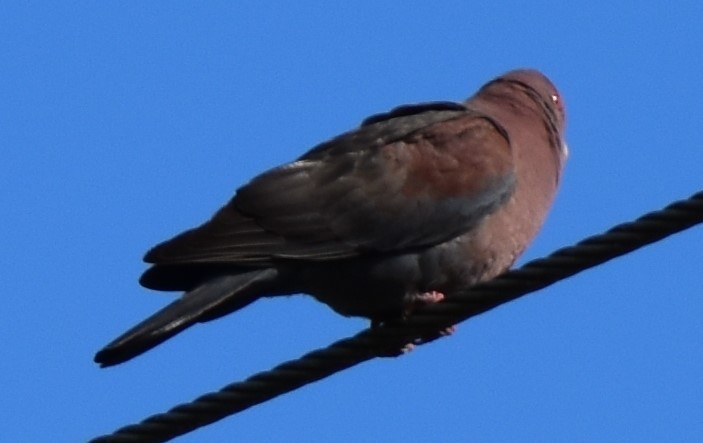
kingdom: Animalia
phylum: Chordata
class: Aves
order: Columbiformes
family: Columbidae
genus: Patagioenas
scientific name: Patagioenas flavirostris
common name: Red-billed pigeon
